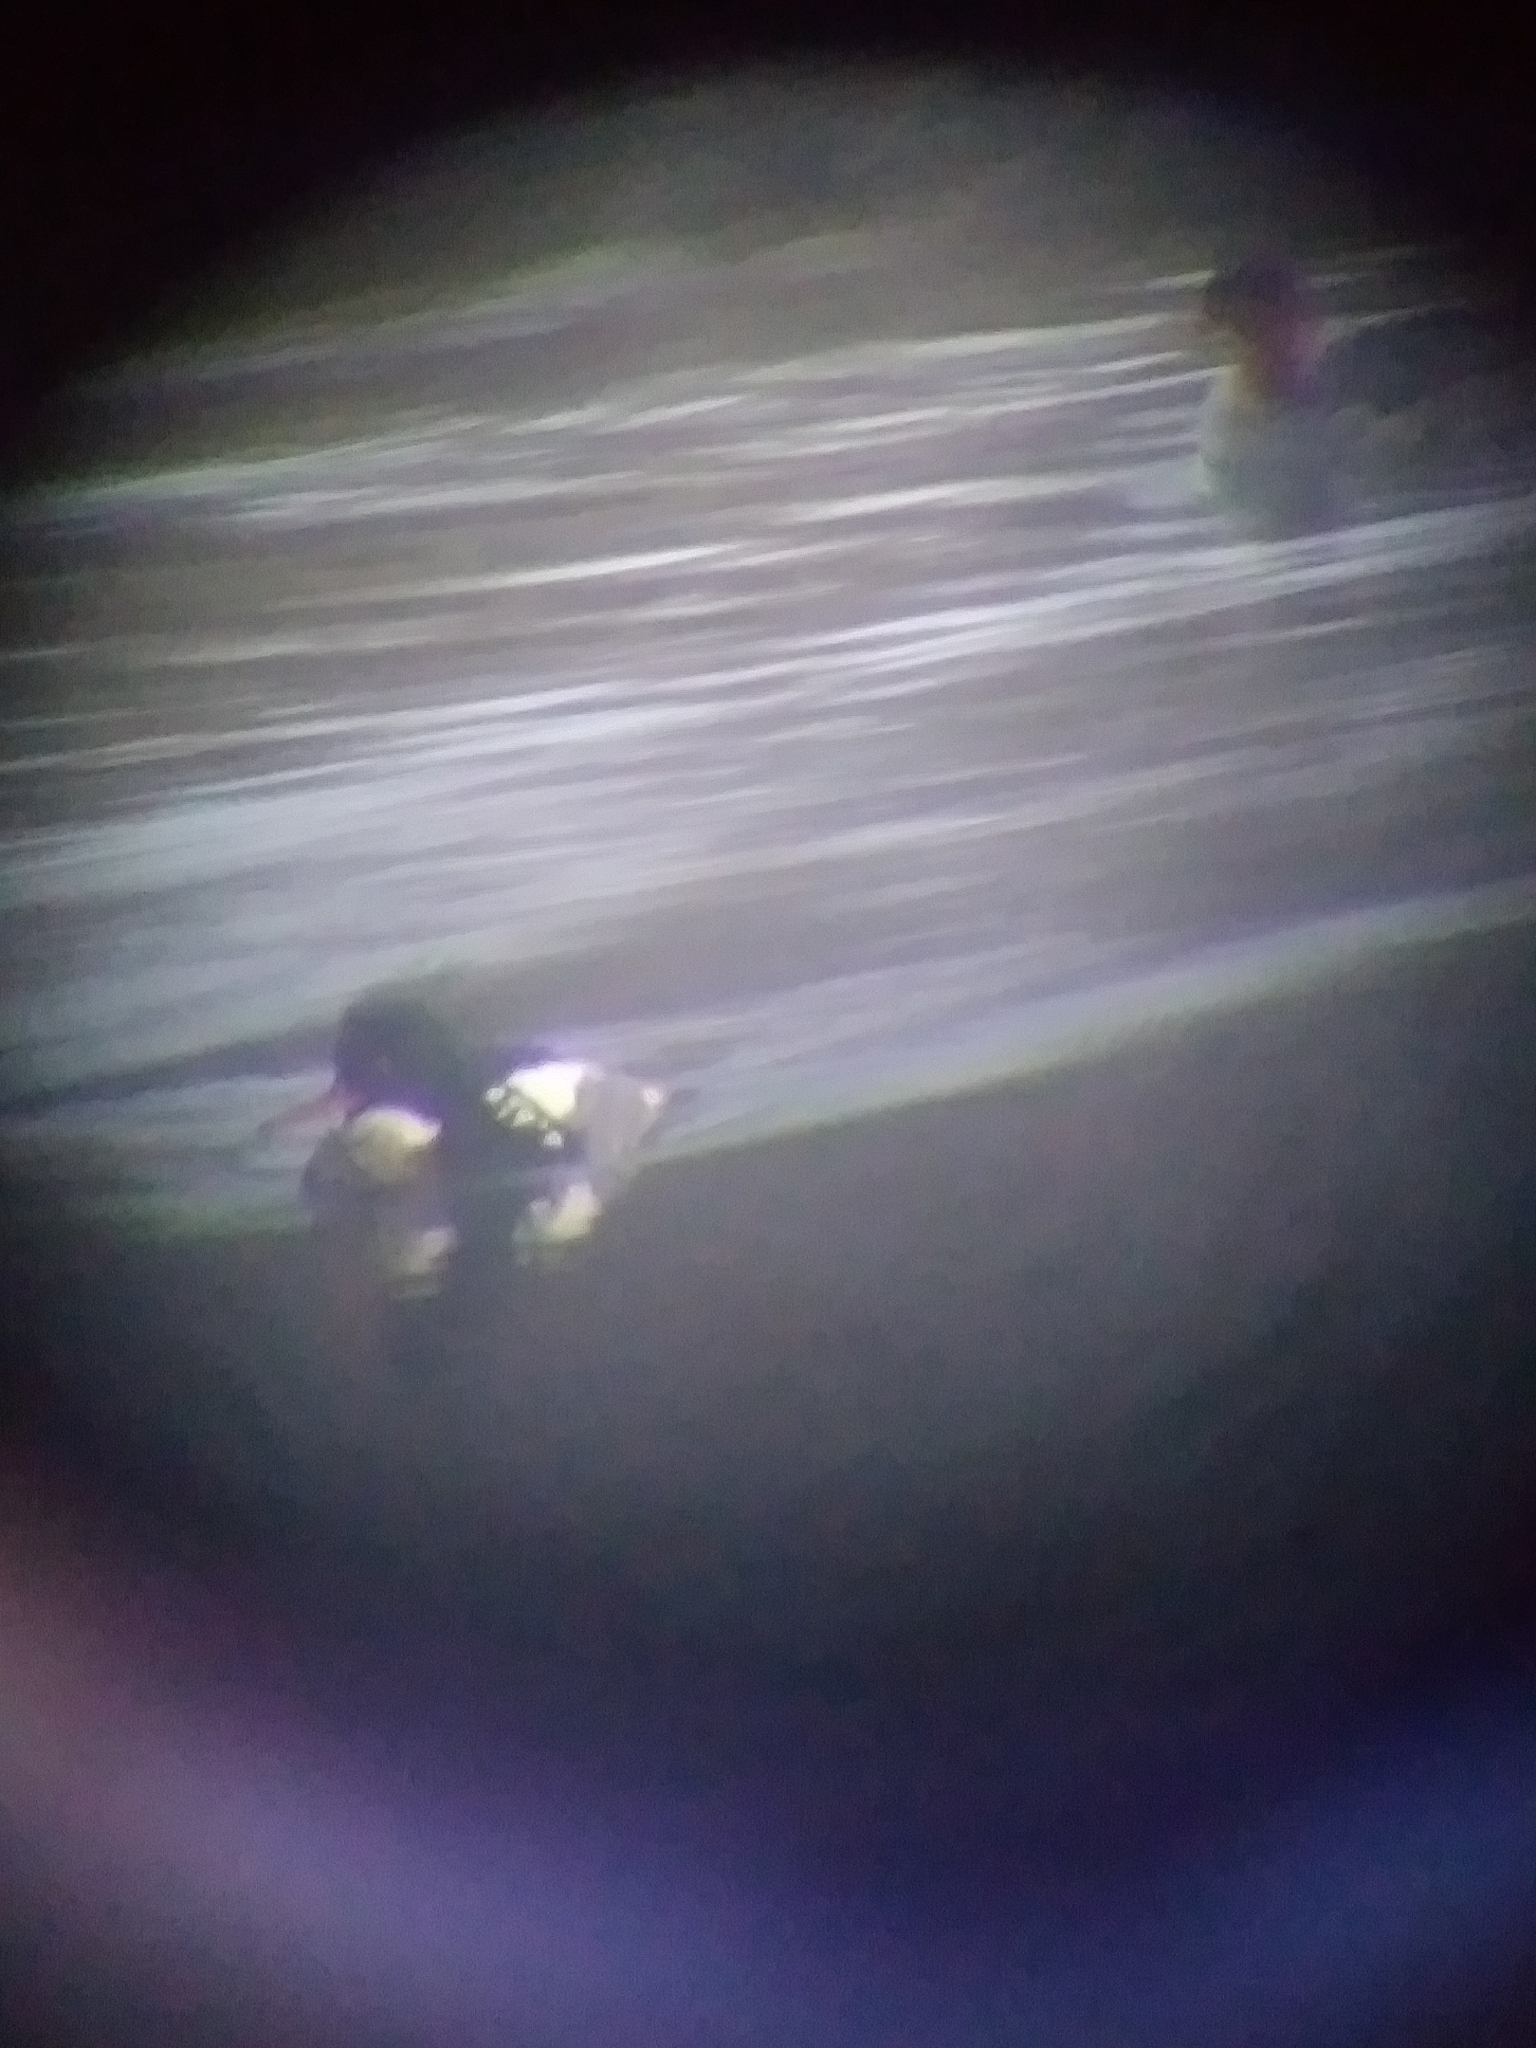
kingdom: Animalia
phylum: Chordata
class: Aves
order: Anseriformes
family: Anatidae
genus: Mergus
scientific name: Mergus serrator
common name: Red-breasted merganser
